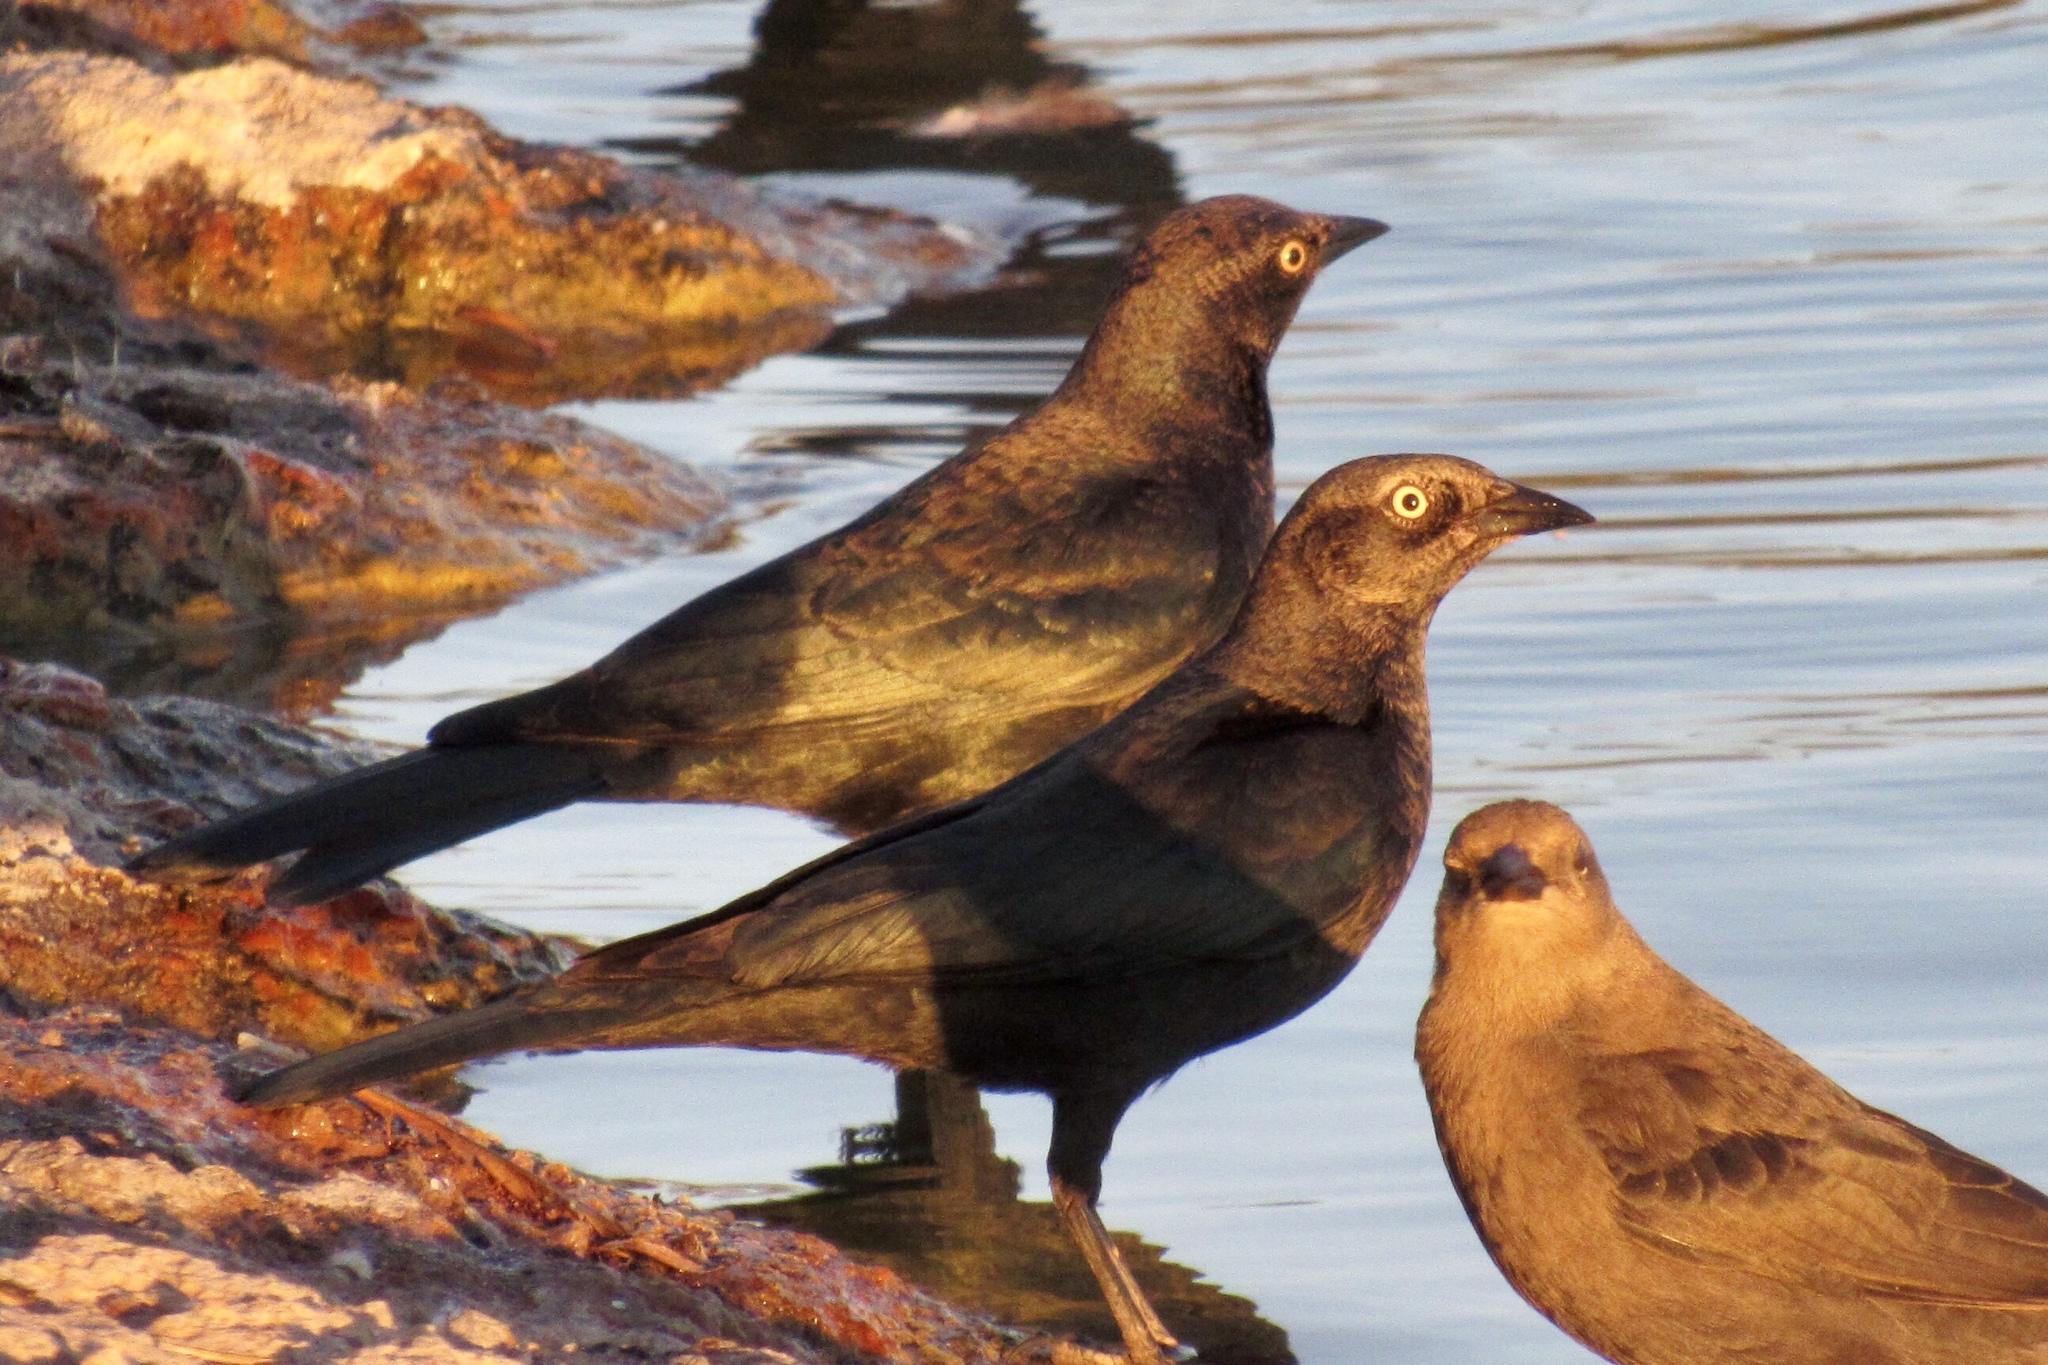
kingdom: Animalia
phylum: Chordata
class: Aves
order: Passeriformes
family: Icteridae
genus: Euphagus
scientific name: Euphagus cyanocephalus
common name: Brewer's blackbird
